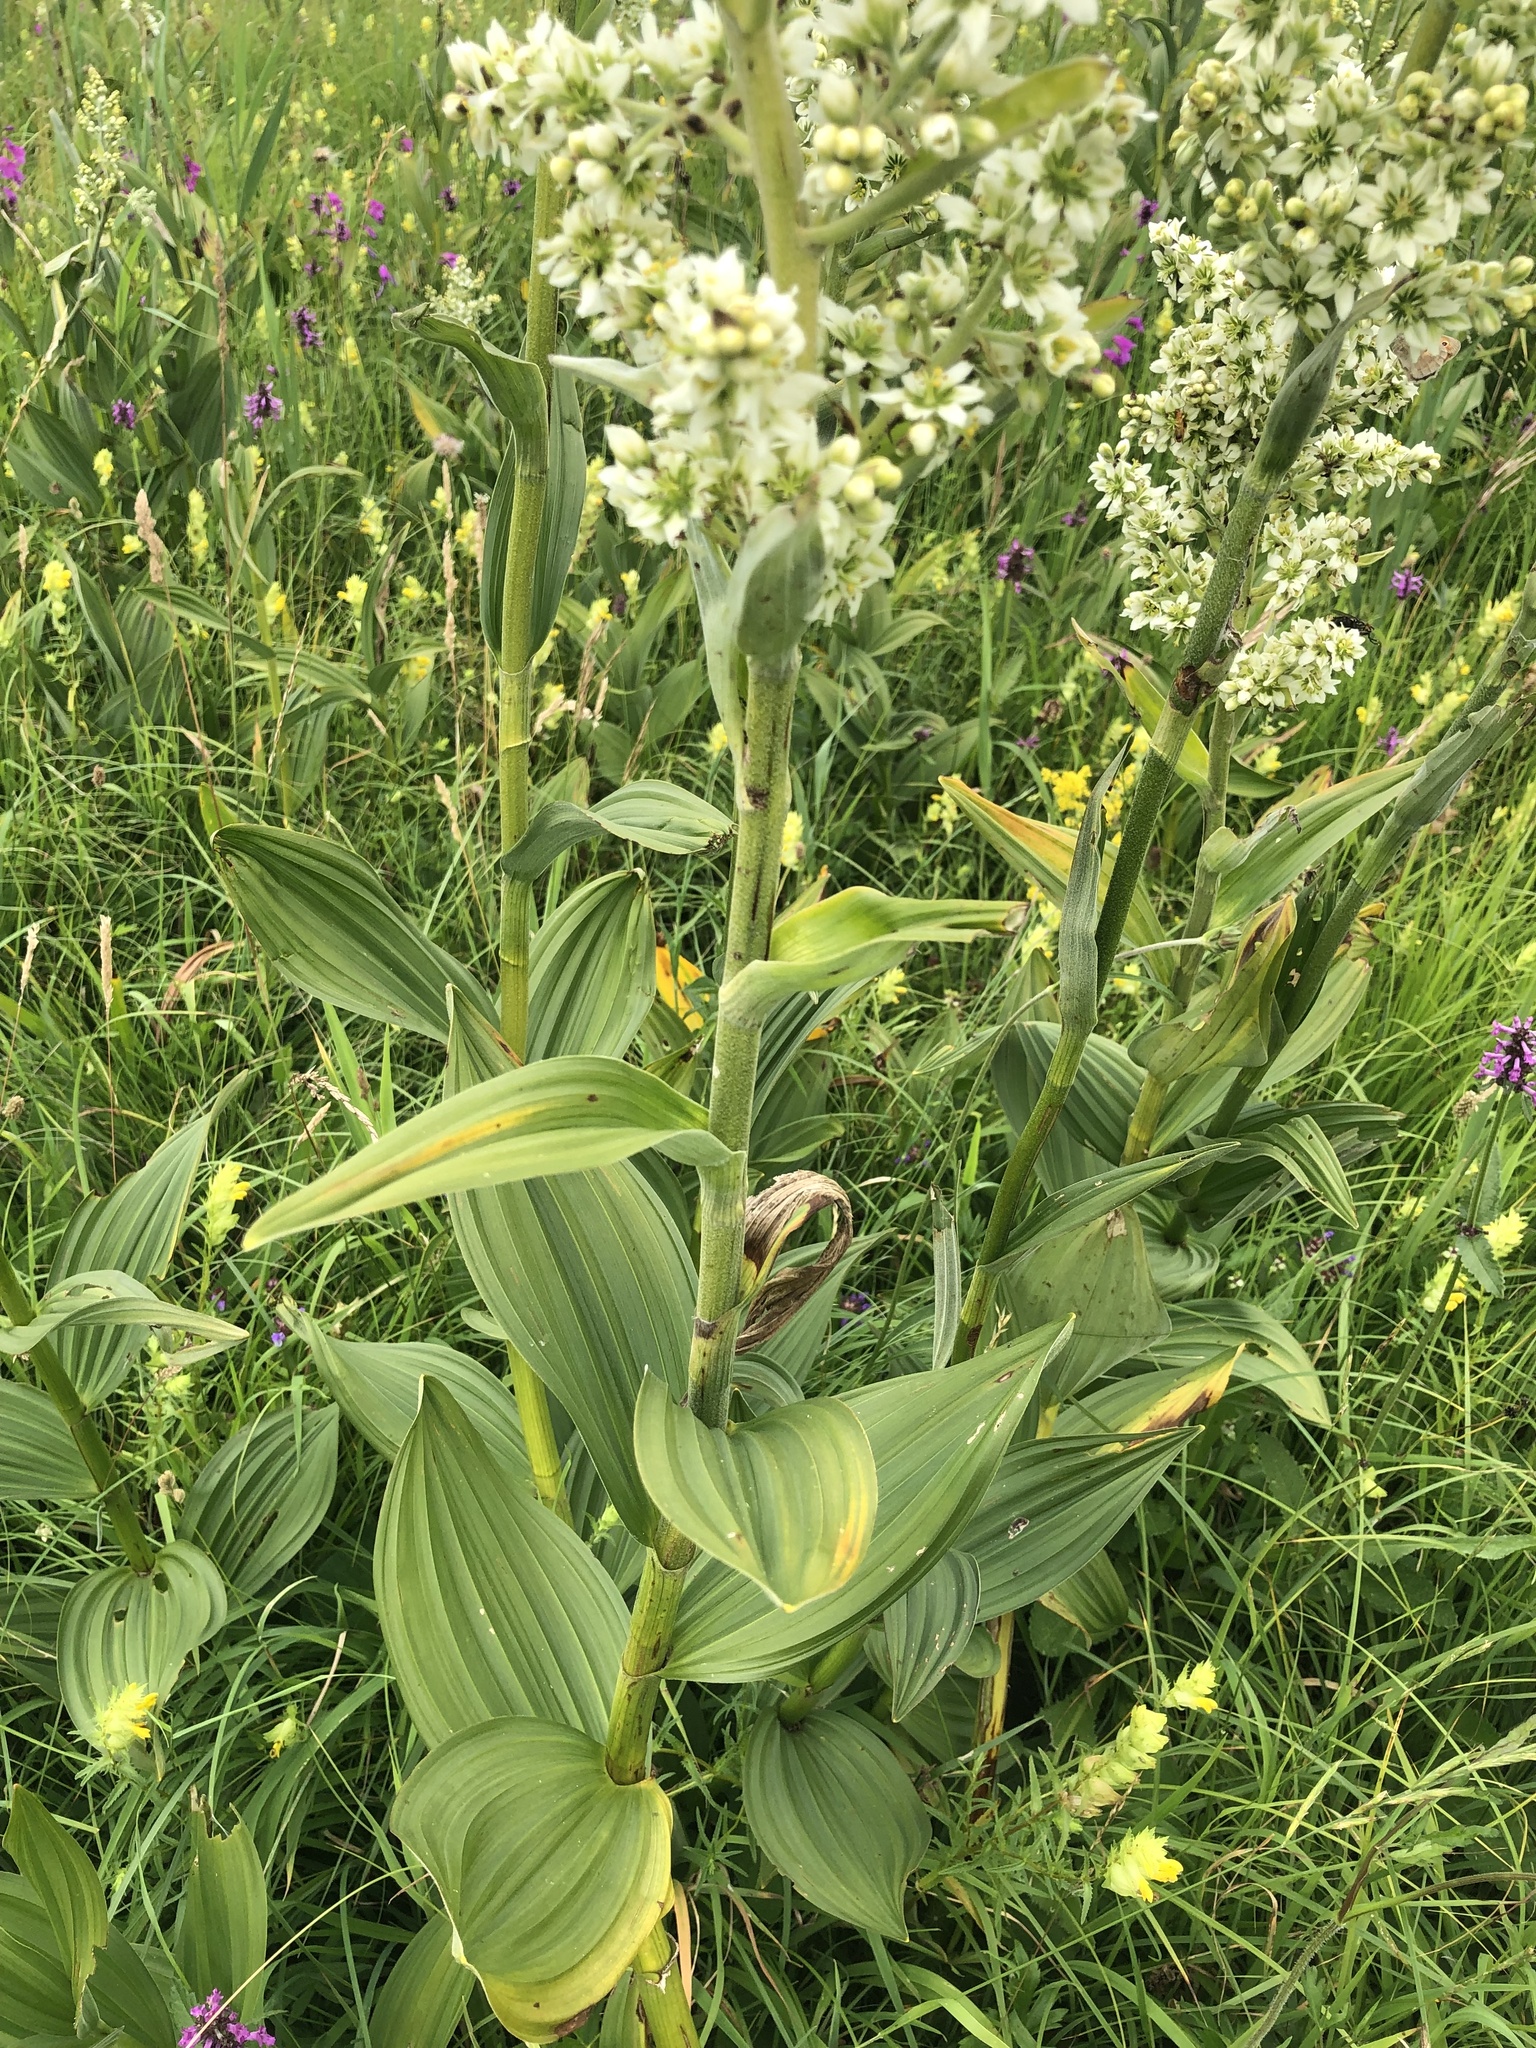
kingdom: Plantae
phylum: Tracheophyta
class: Liliopsida
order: Liliales
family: Melanthiaceae
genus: Veratrum
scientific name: Veratrum album
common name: White veratrum
